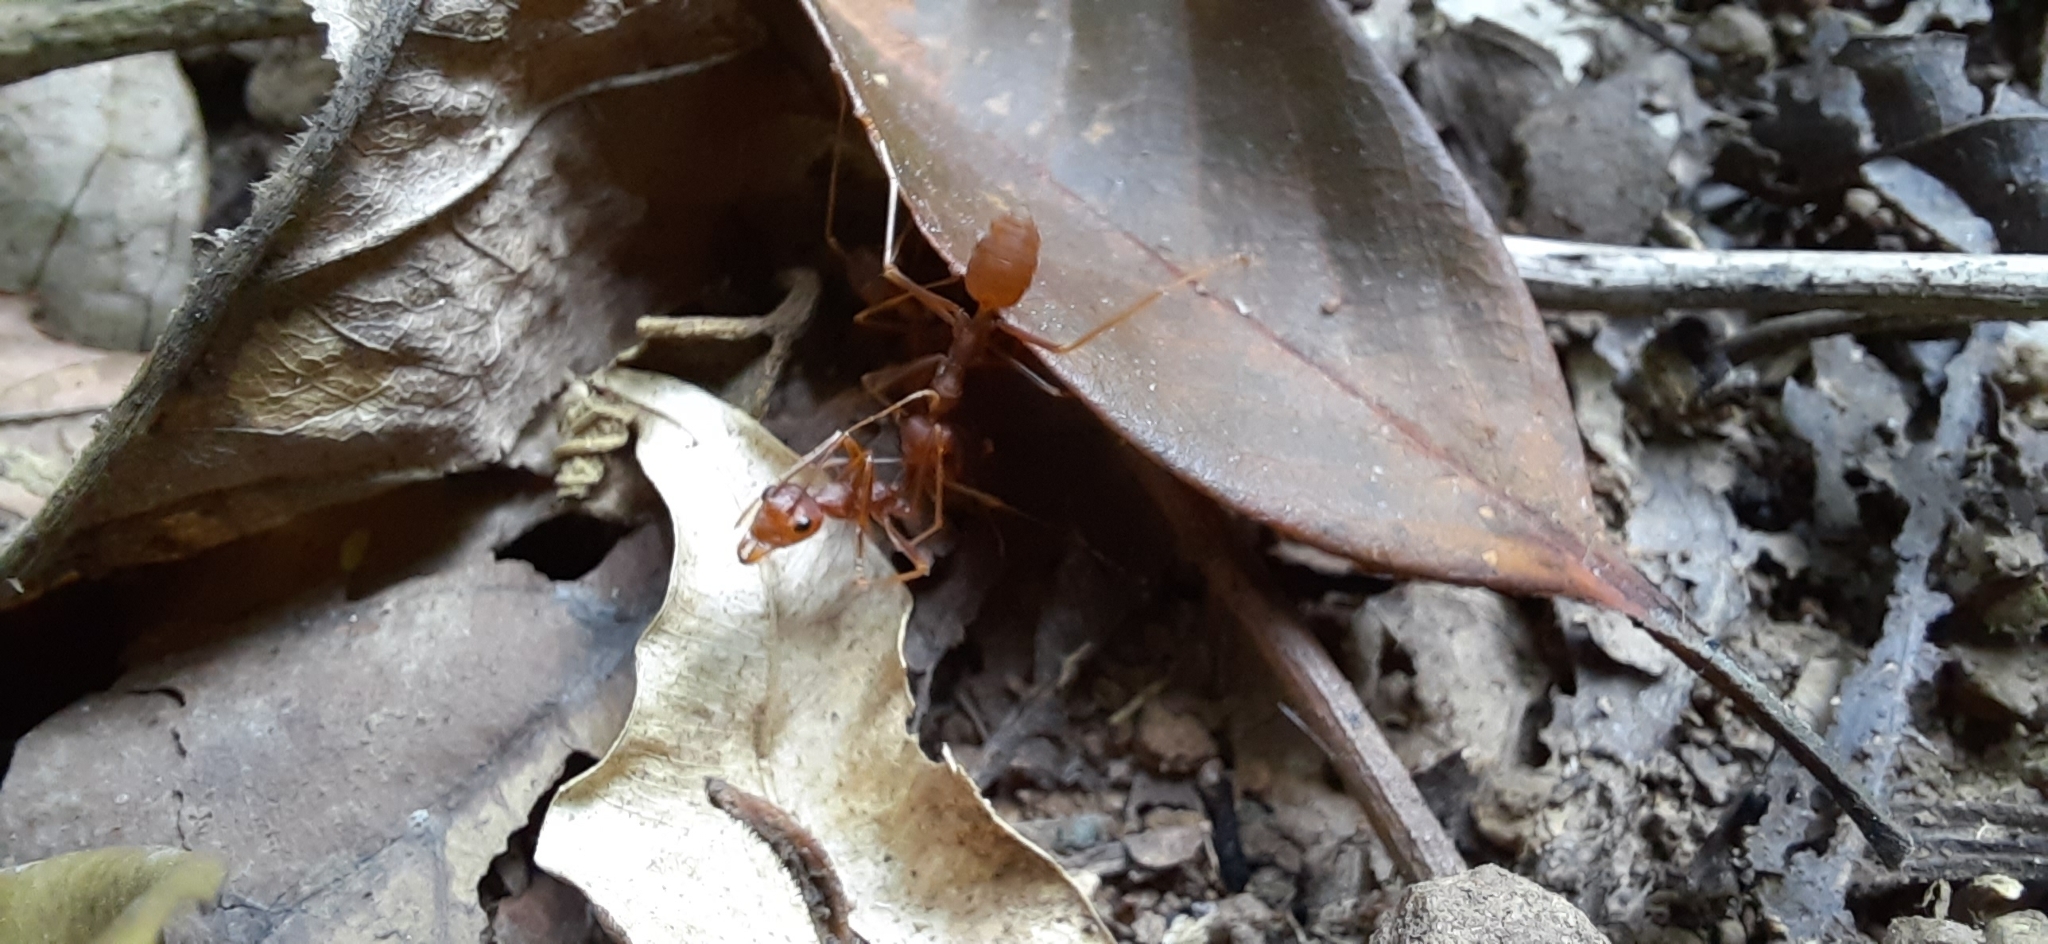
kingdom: Animalia
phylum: Arthropoda
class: Insecta
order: Hymenoptera
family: Formicidae
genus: Oecophylla
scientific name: Oecophylla smaragdina
